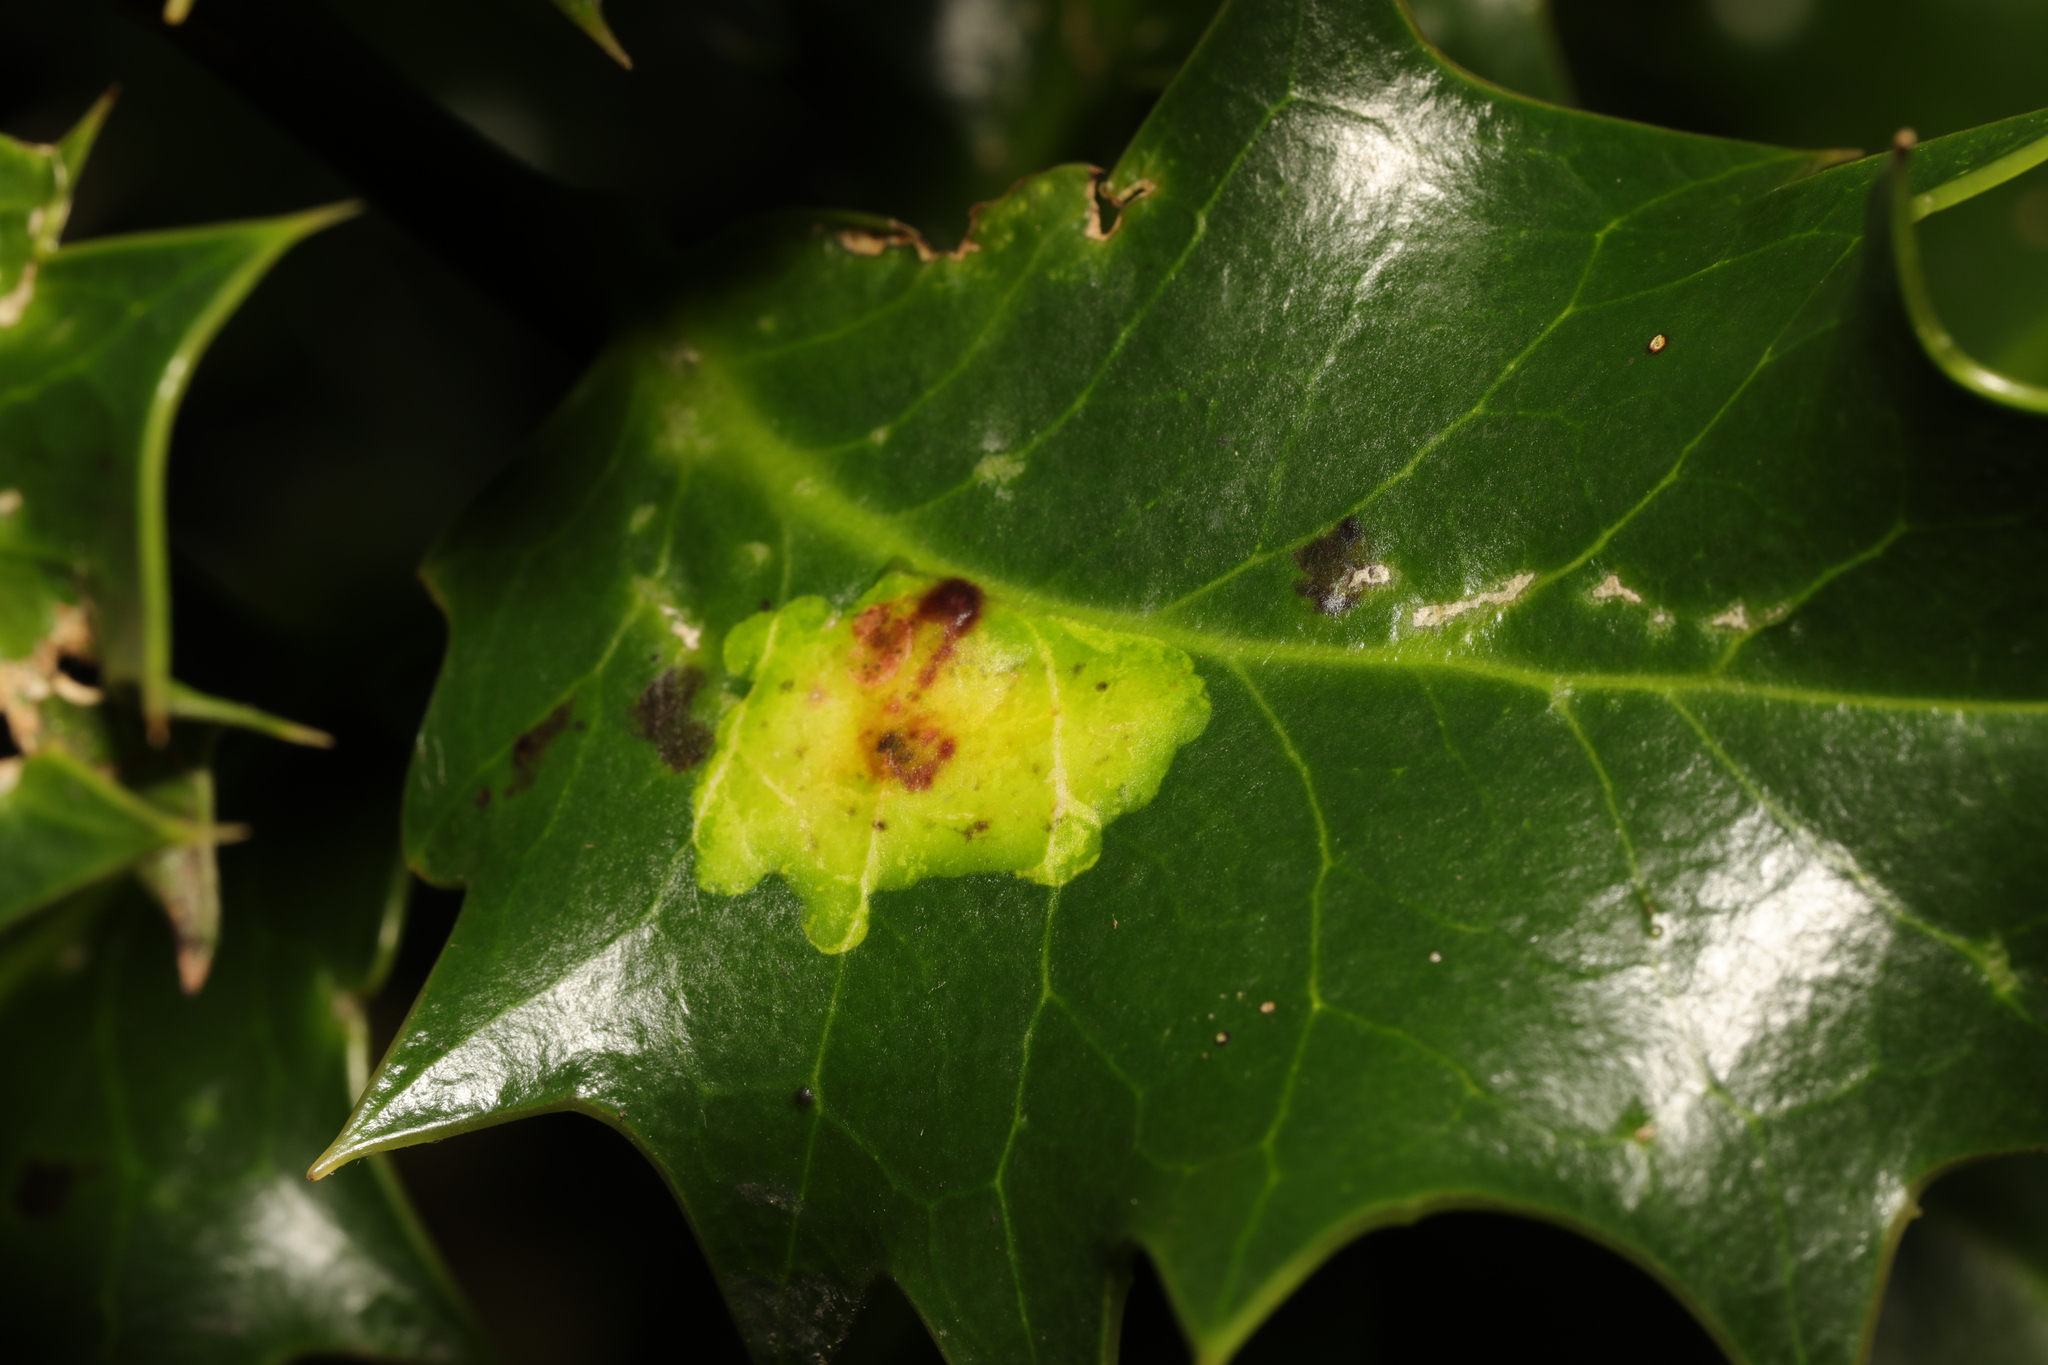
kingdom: Animalia
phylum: Arthropoda
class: Insecta
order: Diptera
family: Agromyzidae
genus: Phytomyza
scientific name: Phytomyza ilicis
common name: Holly leafminer
